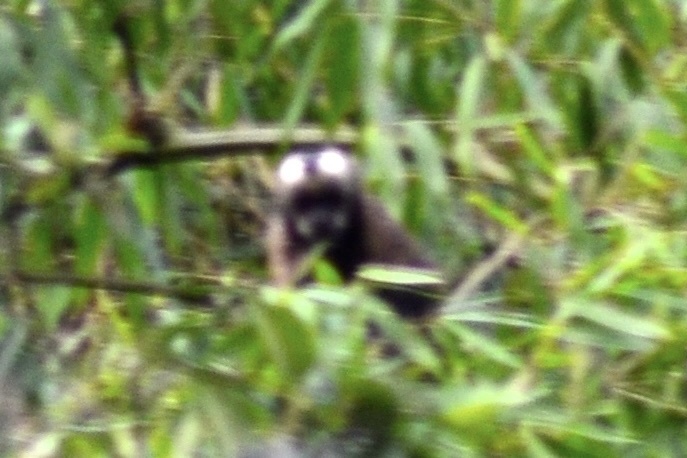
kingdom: Animalia
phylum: Chordata
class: Mammalia
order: Primates
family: Cebidae
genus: Sapajus
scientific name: Sapajus apella
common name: Tufted capuchin
